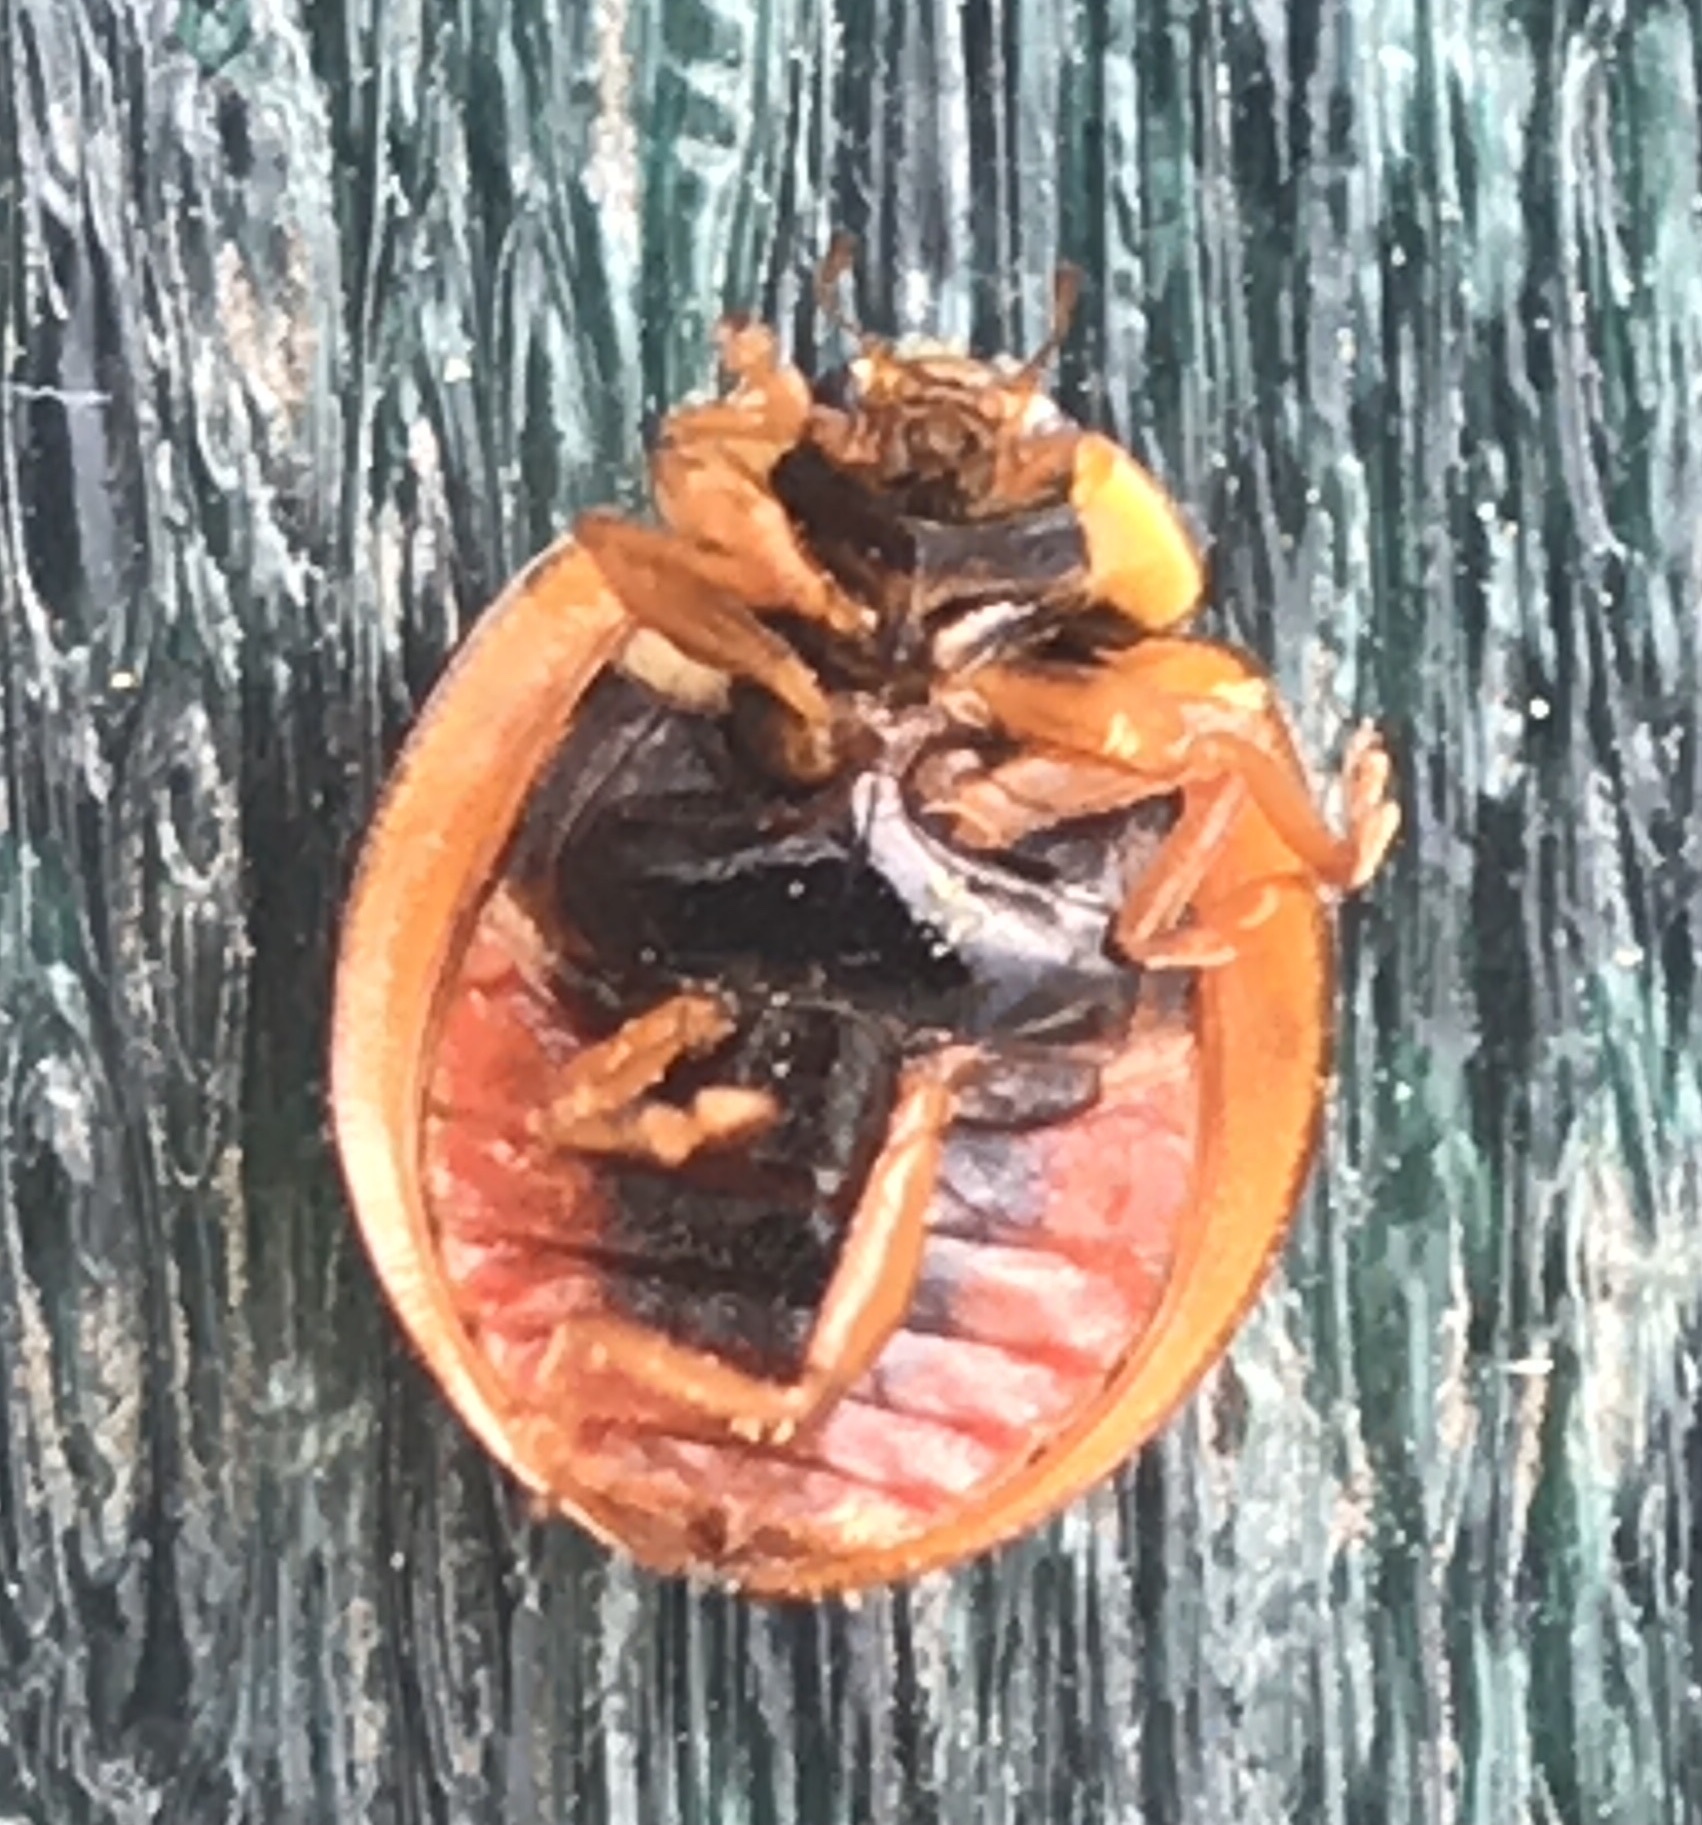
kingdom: Animalia
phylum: Arthropoda
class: Insecta
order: Coleoptera
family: Coccinellidae
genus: Harmonia
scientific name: Harmonia axyridis
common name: Harlequin ladybird
